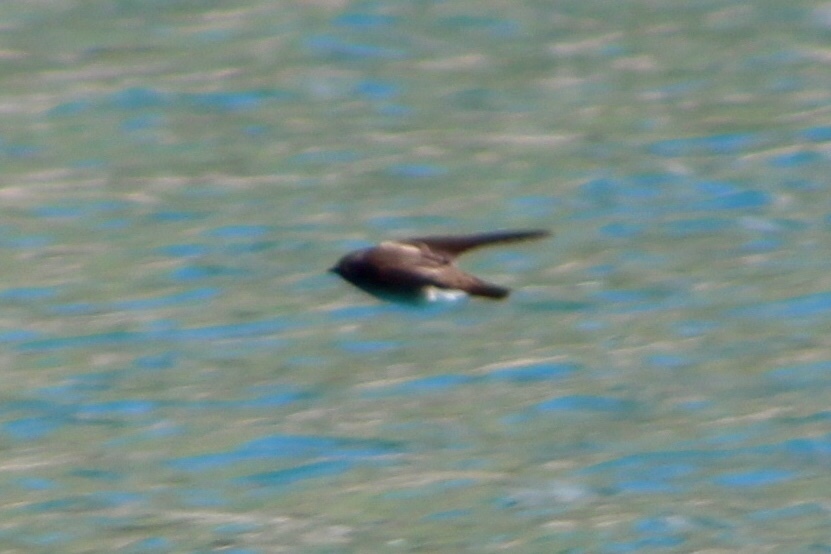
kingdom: Animalia
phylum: Chordata
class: Aves
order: Passeriformes
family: Hirundinidae
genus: Stelgidopteryx
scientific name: Stelgidopteryx serripennis
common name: Northern rough-winged swallow
